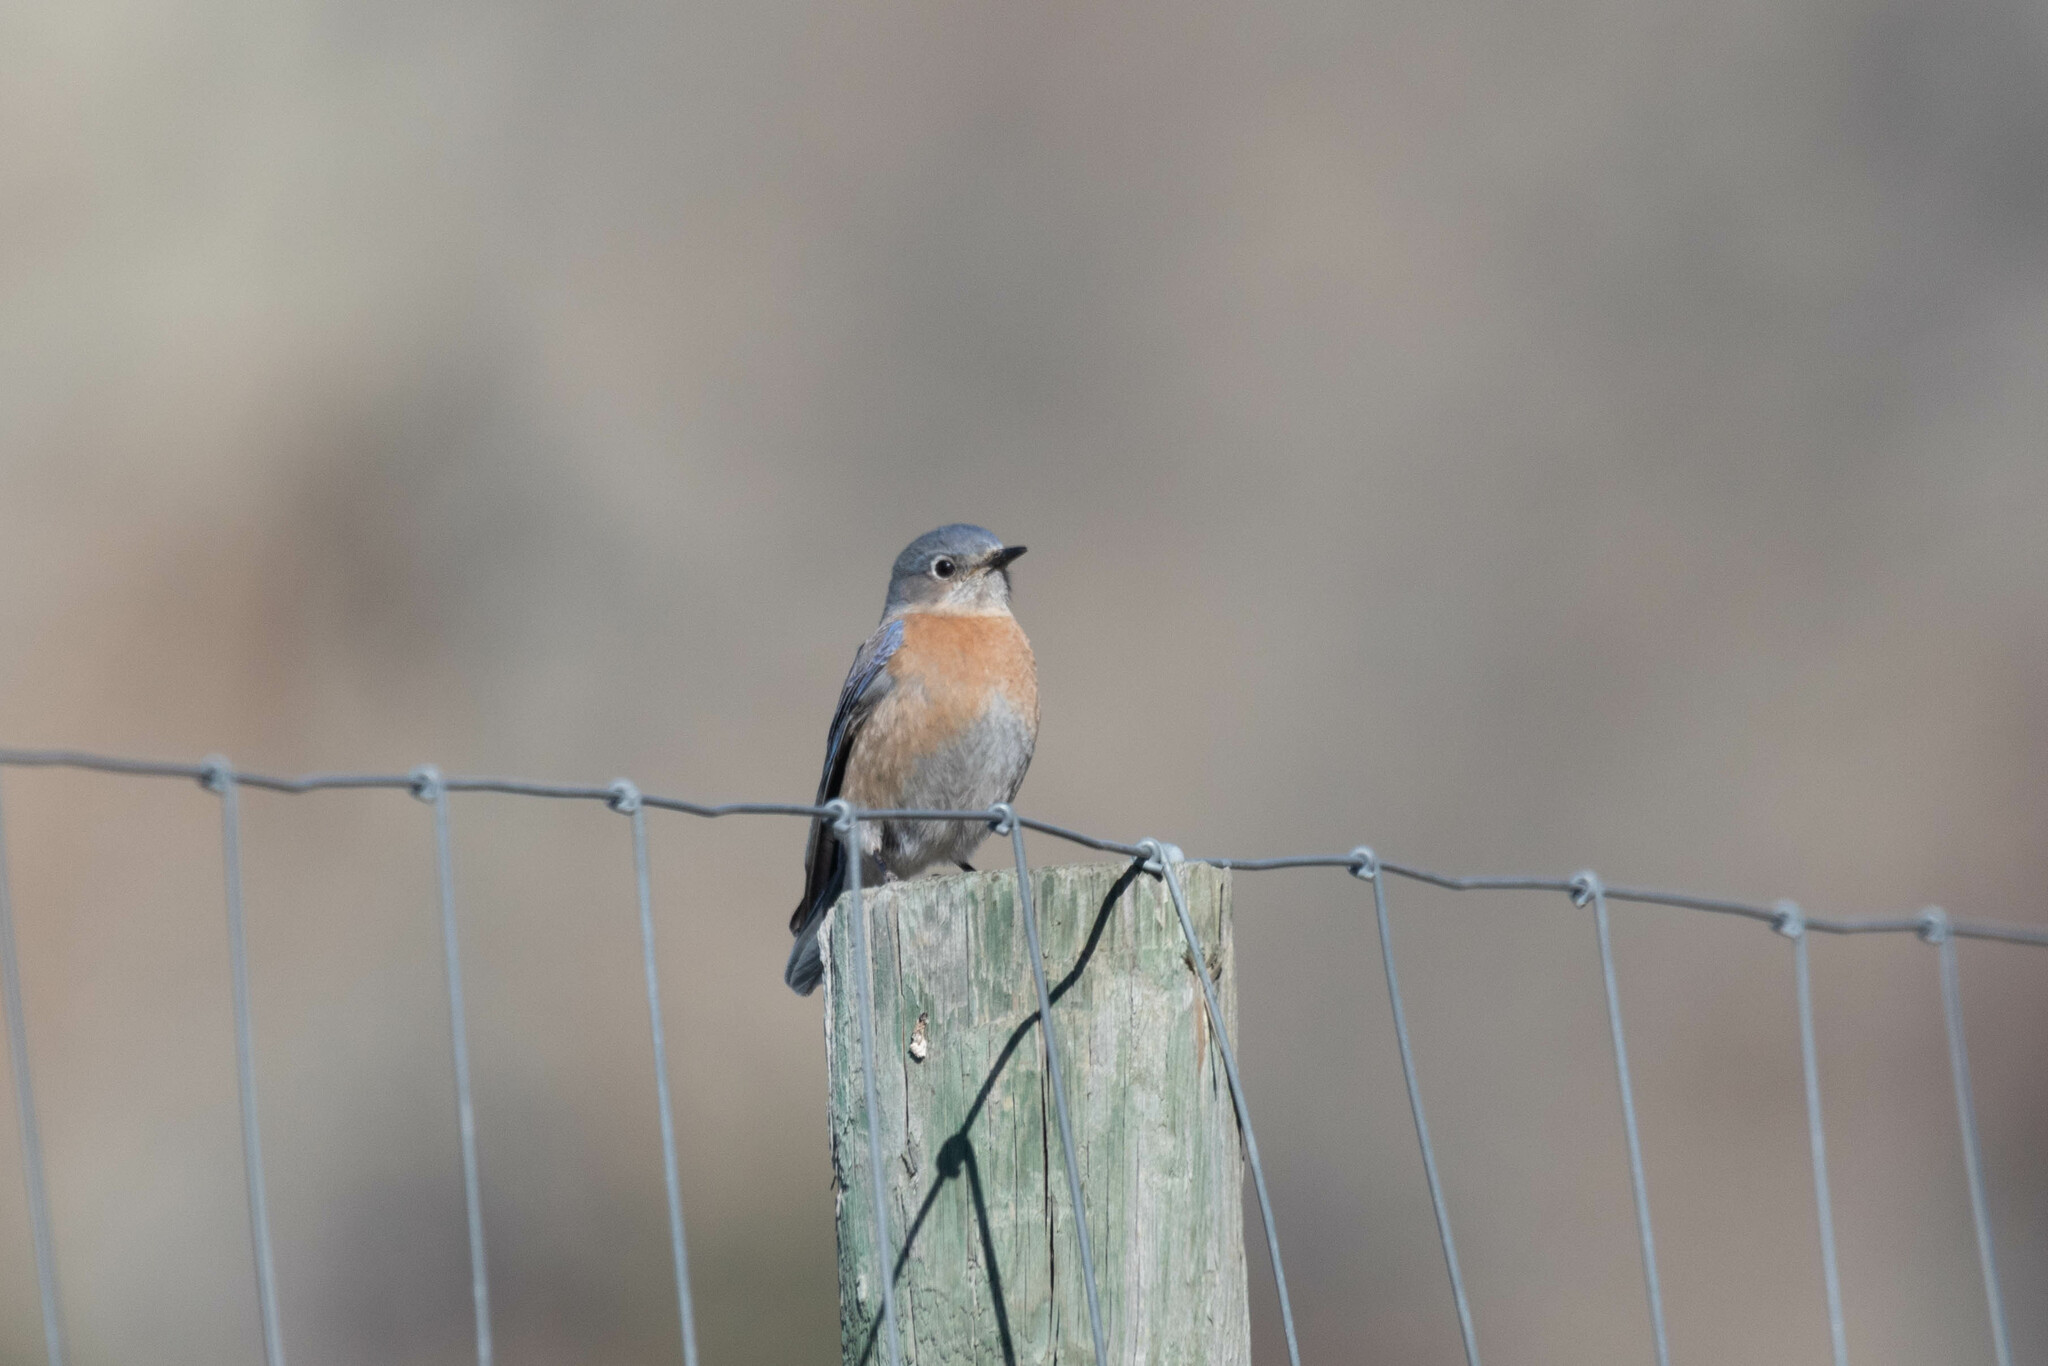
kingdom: Animalia
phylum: Chordata
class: Aves
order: Passeriformes
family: Turdidae
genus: Sialia
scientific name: Sialia mexicana
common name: Western bluebird
